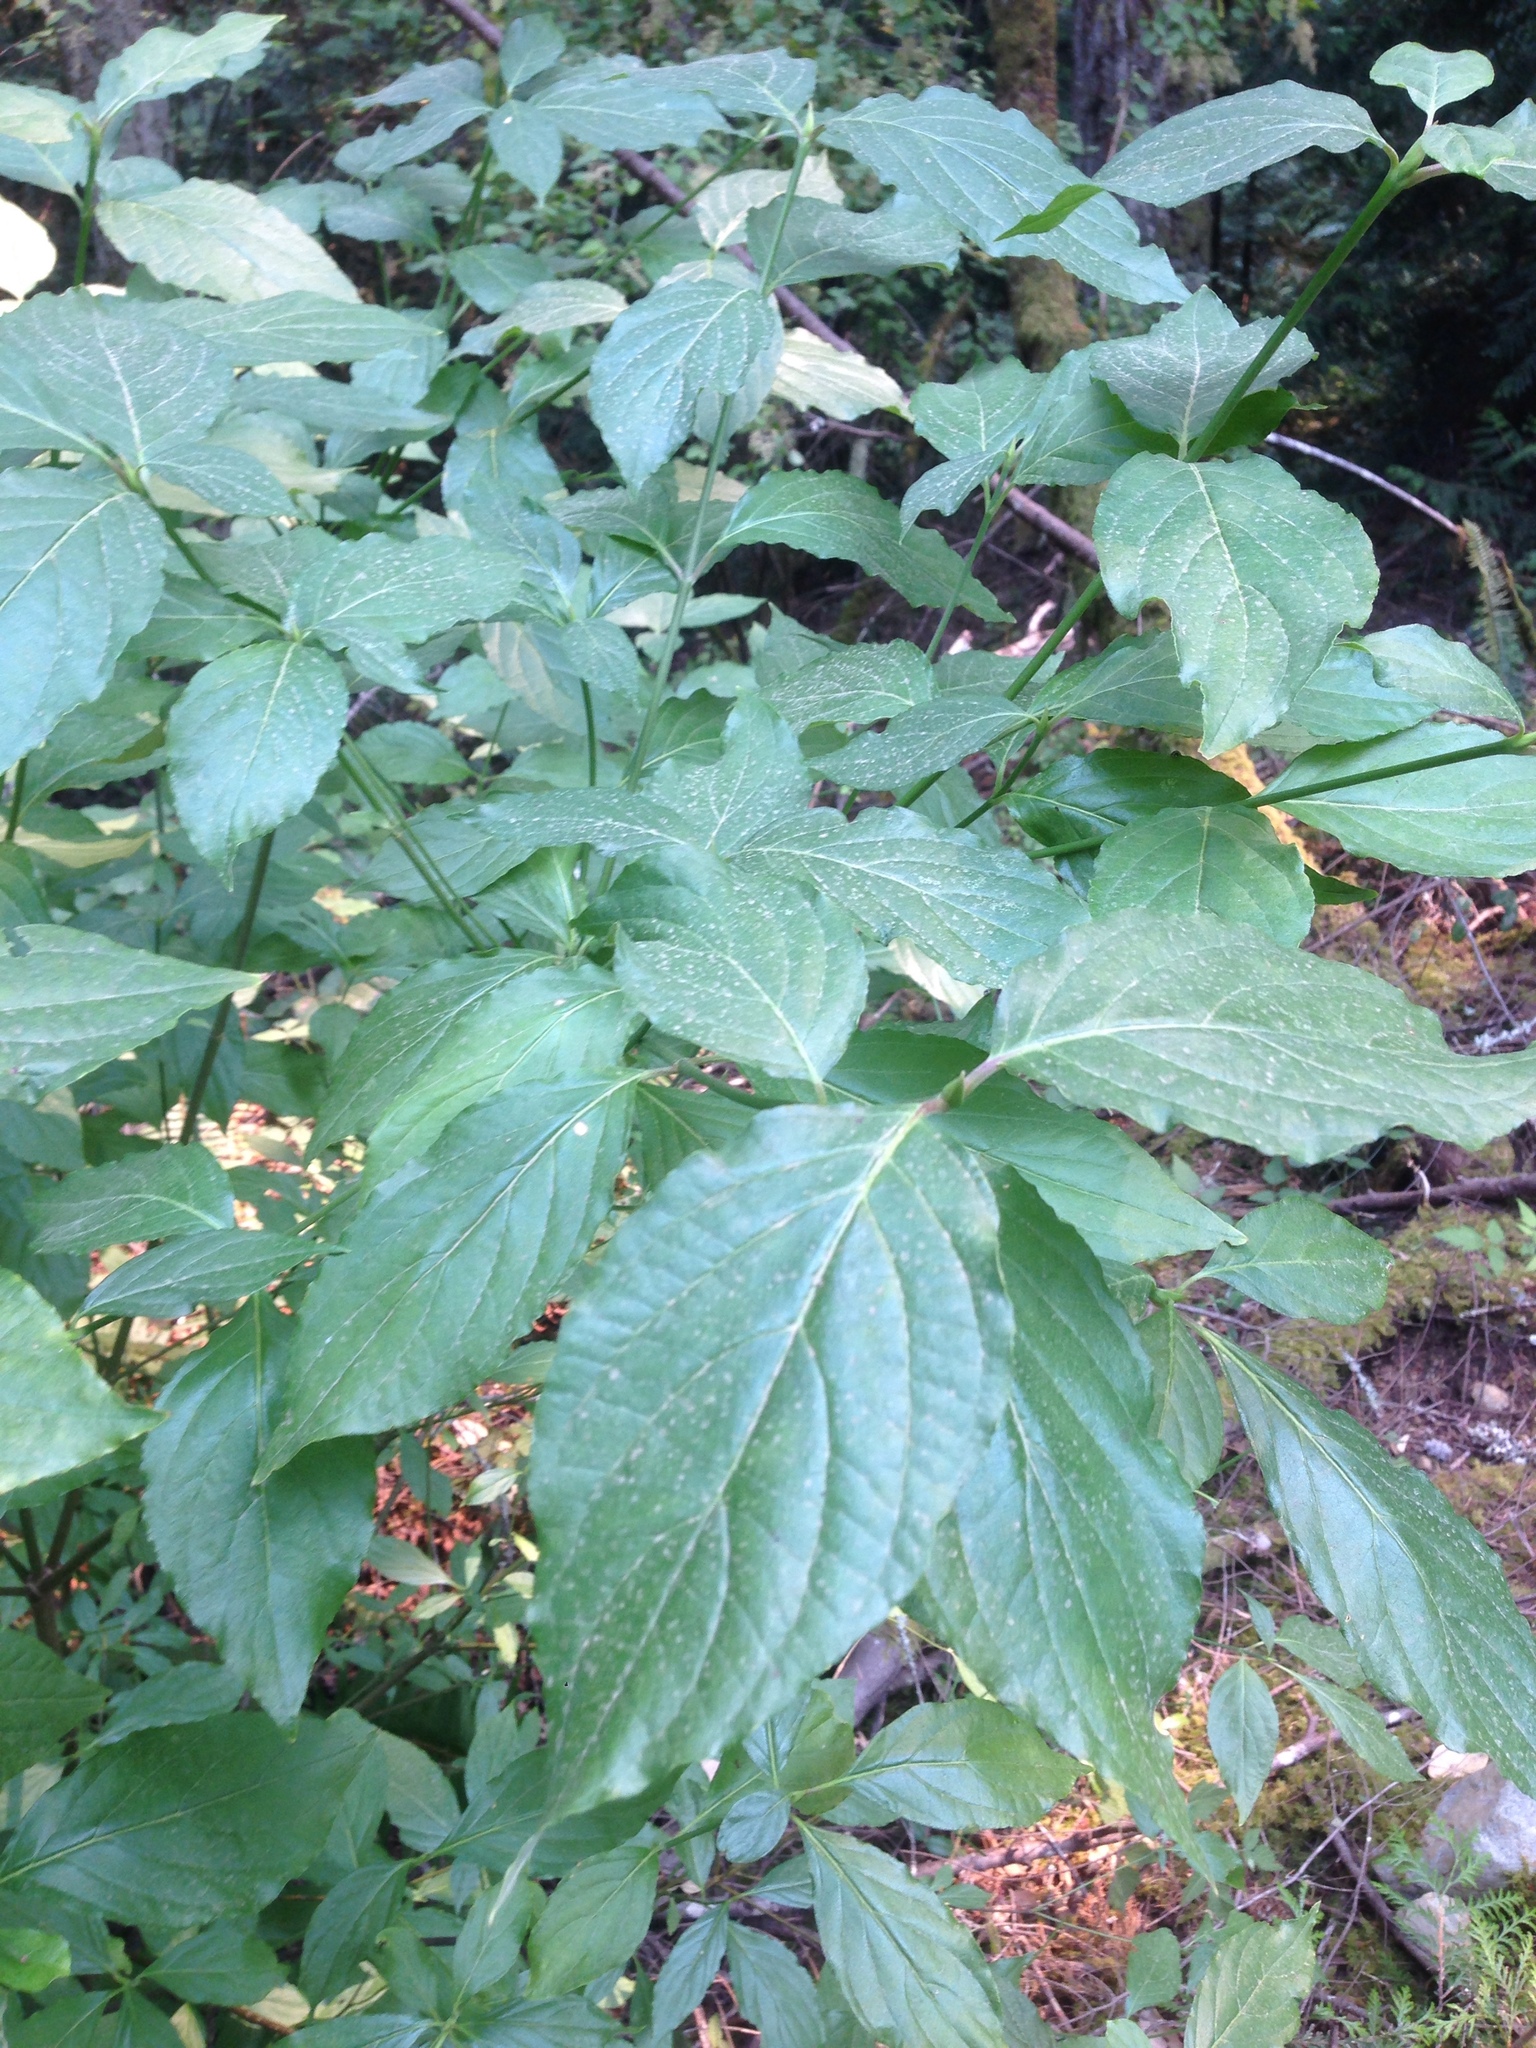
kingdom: Plantae
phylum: Tracheophyta
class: Magnoliopsida
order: Cornales
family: Cornaceae
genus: Cornus
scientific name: Cornus nuttallii
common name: Pacific dogwood
